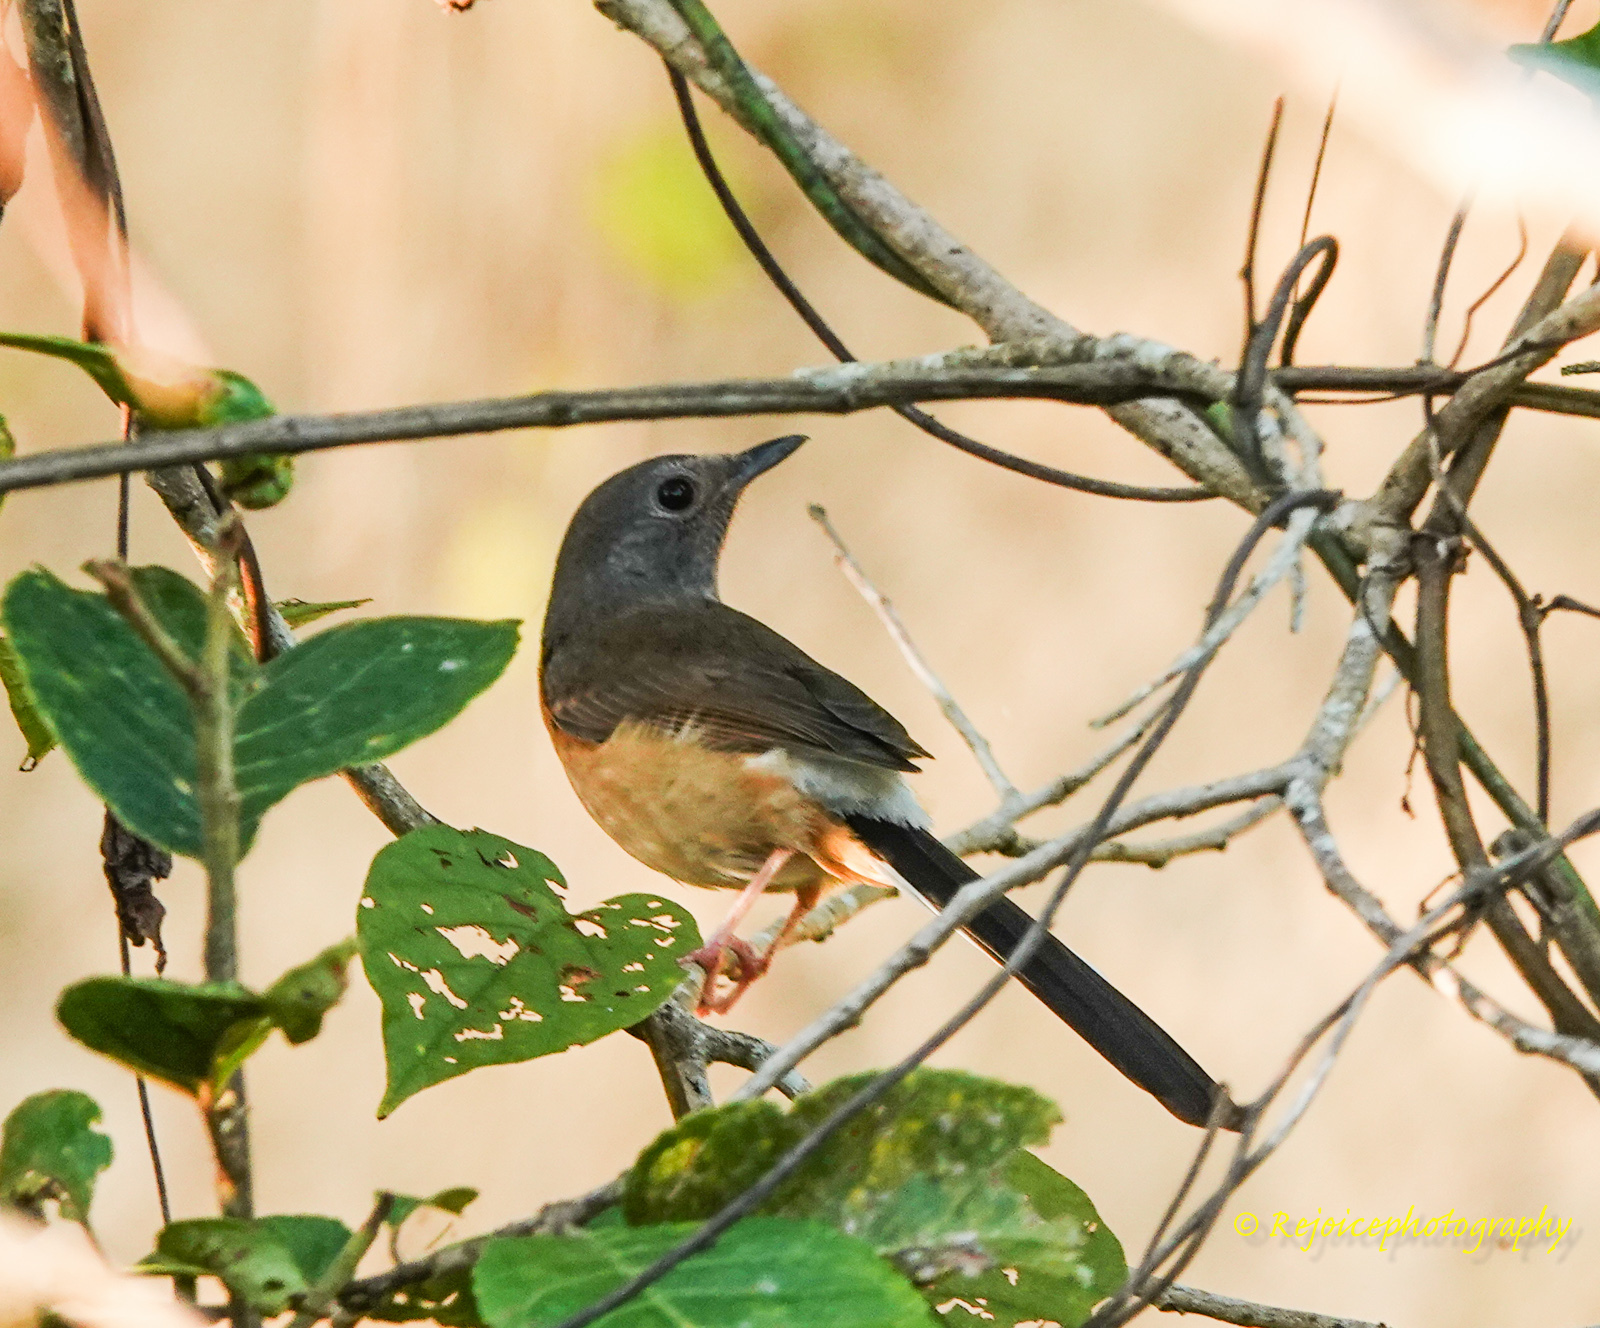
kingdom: Animalia
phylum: Chordata
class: Aves
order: Passeriformes
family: Muscicapidae
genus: Copsychus
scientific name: Copsychus malabaricus
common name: White-rumped shama
